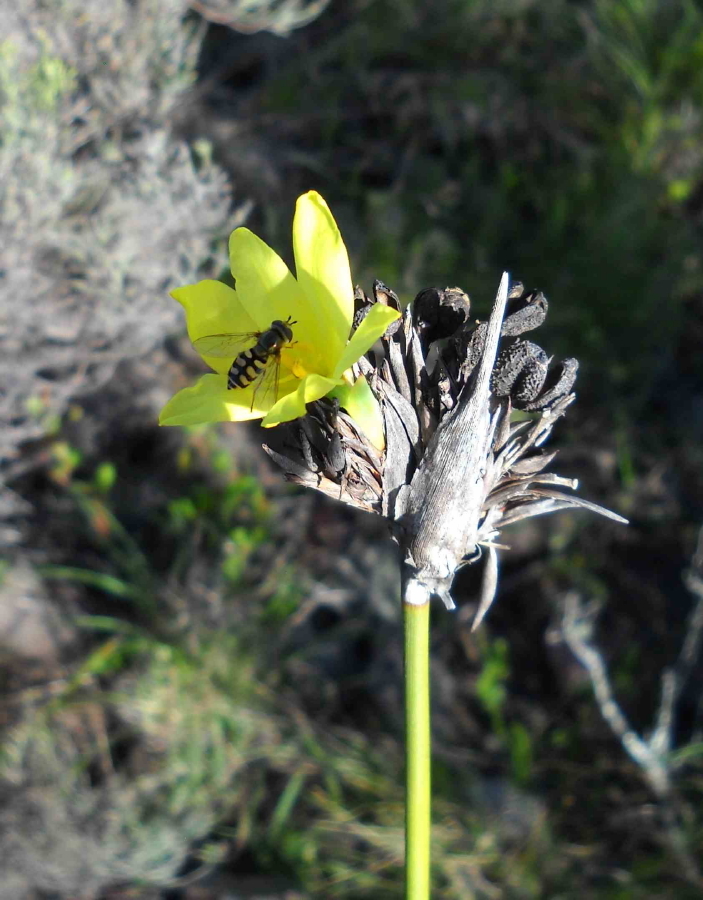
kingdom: Plantae
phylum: Tracheophyta
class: Liliopsida
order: Asparagales
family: Iridaceae
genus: Bobartia
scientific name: Bobartia robusta
